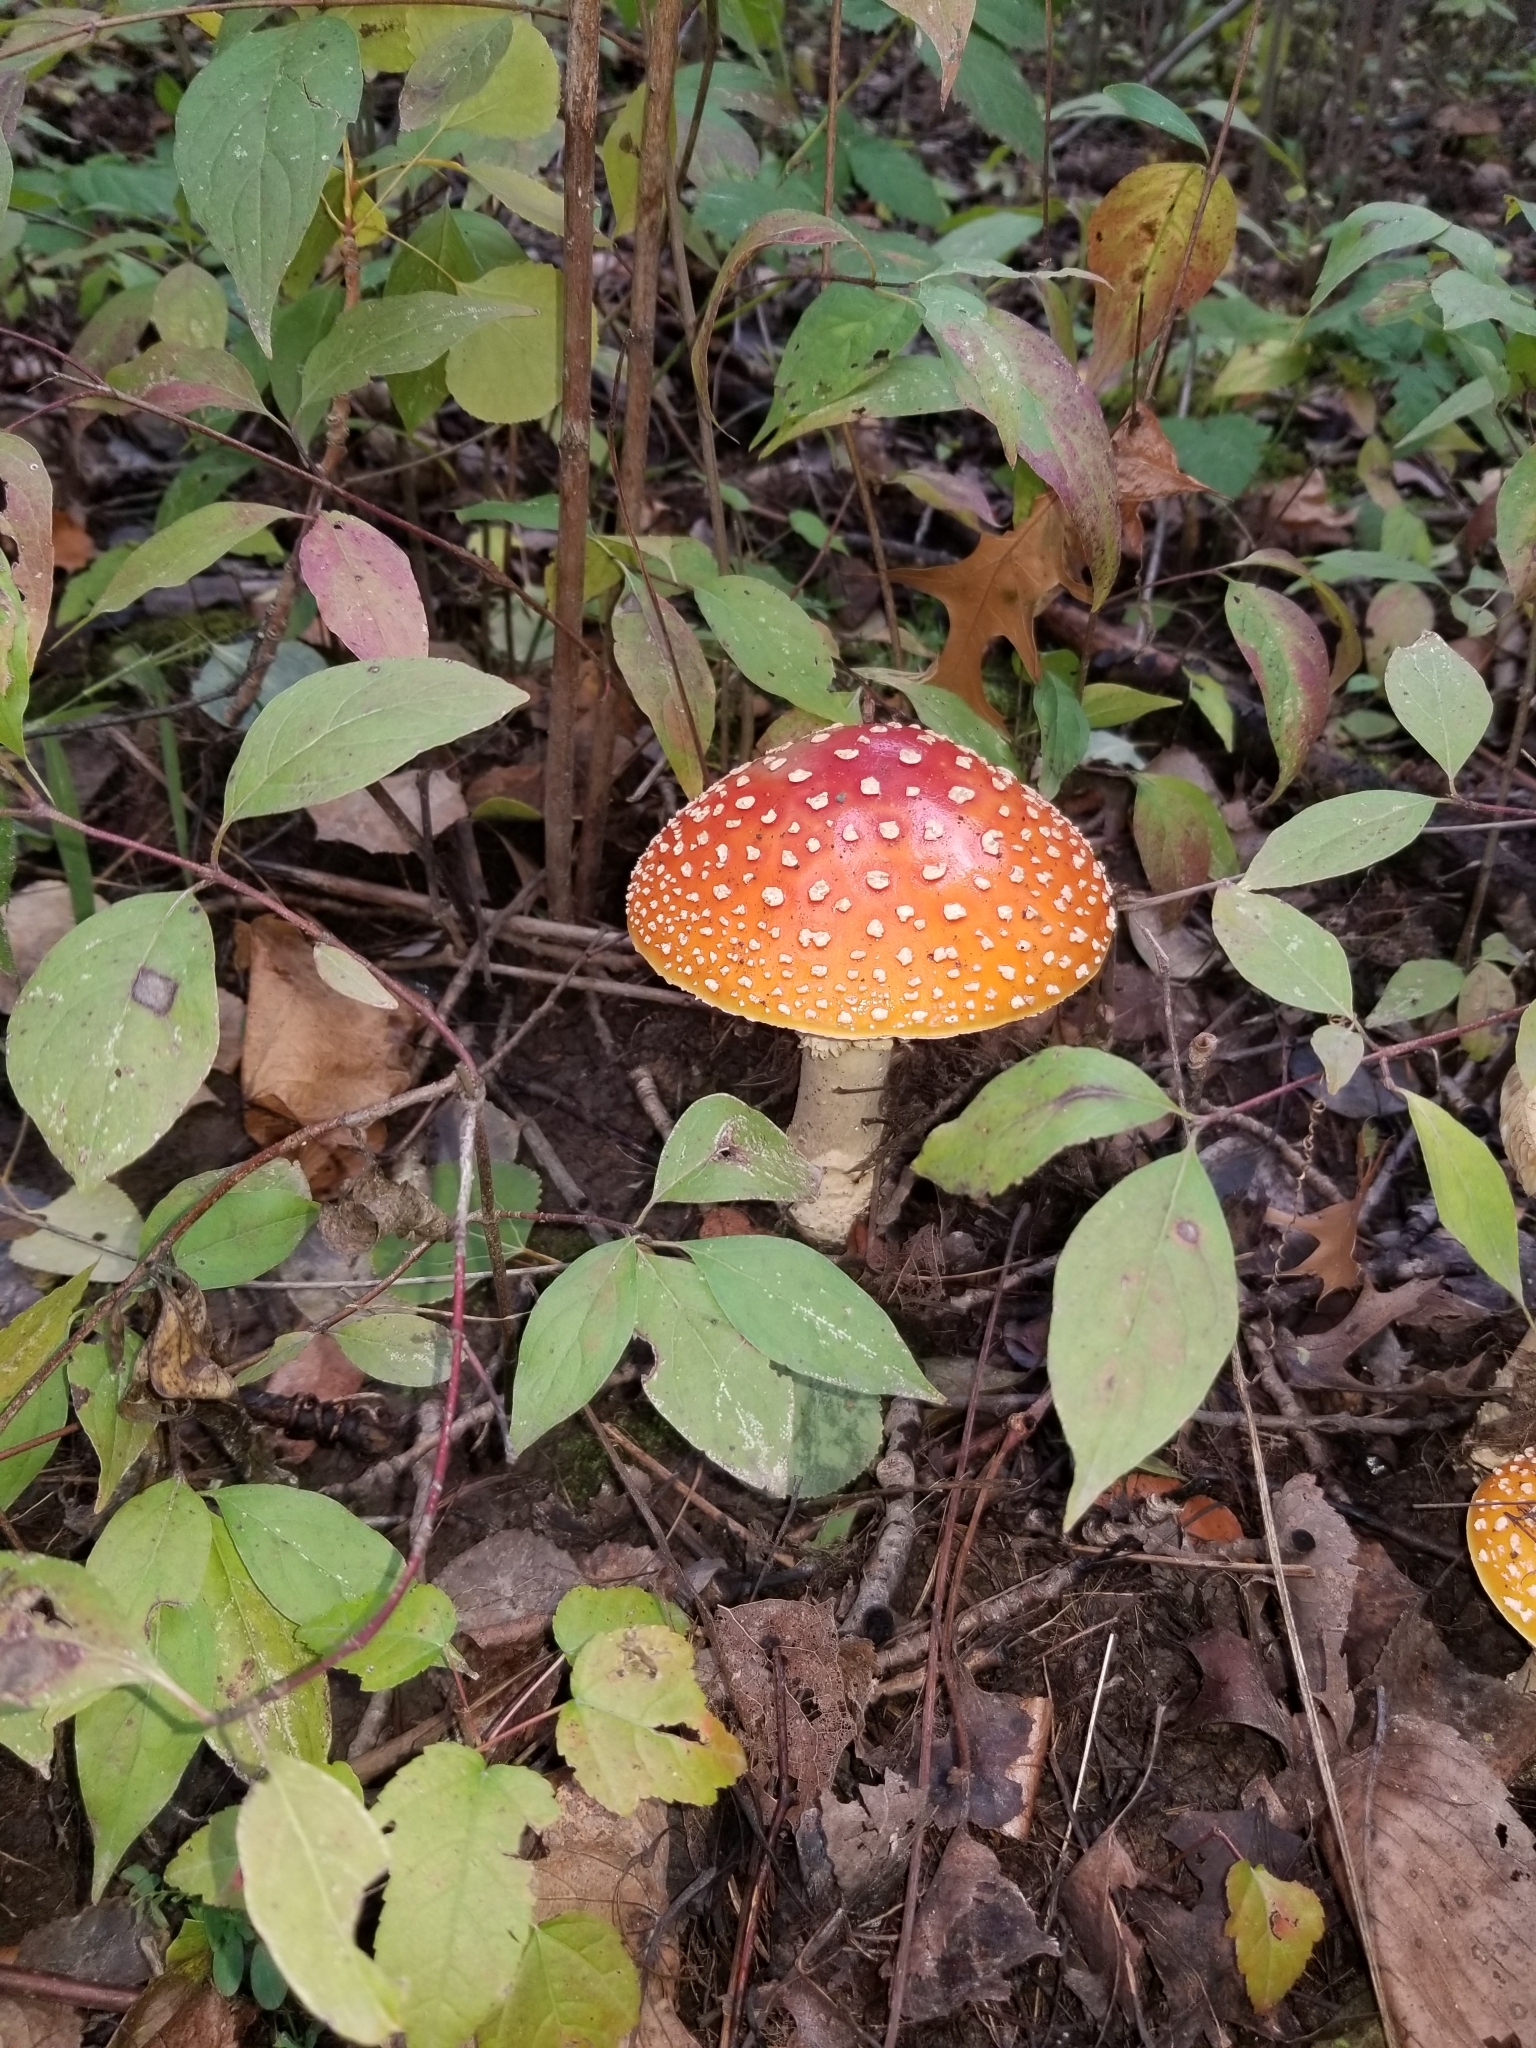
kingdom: Fungi
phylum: Basidiomycota
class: Agaricomycetes
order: Agaricales
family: Amanitaceae
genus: Amanita
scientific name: Amanita muscaria
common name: Fly agaric
